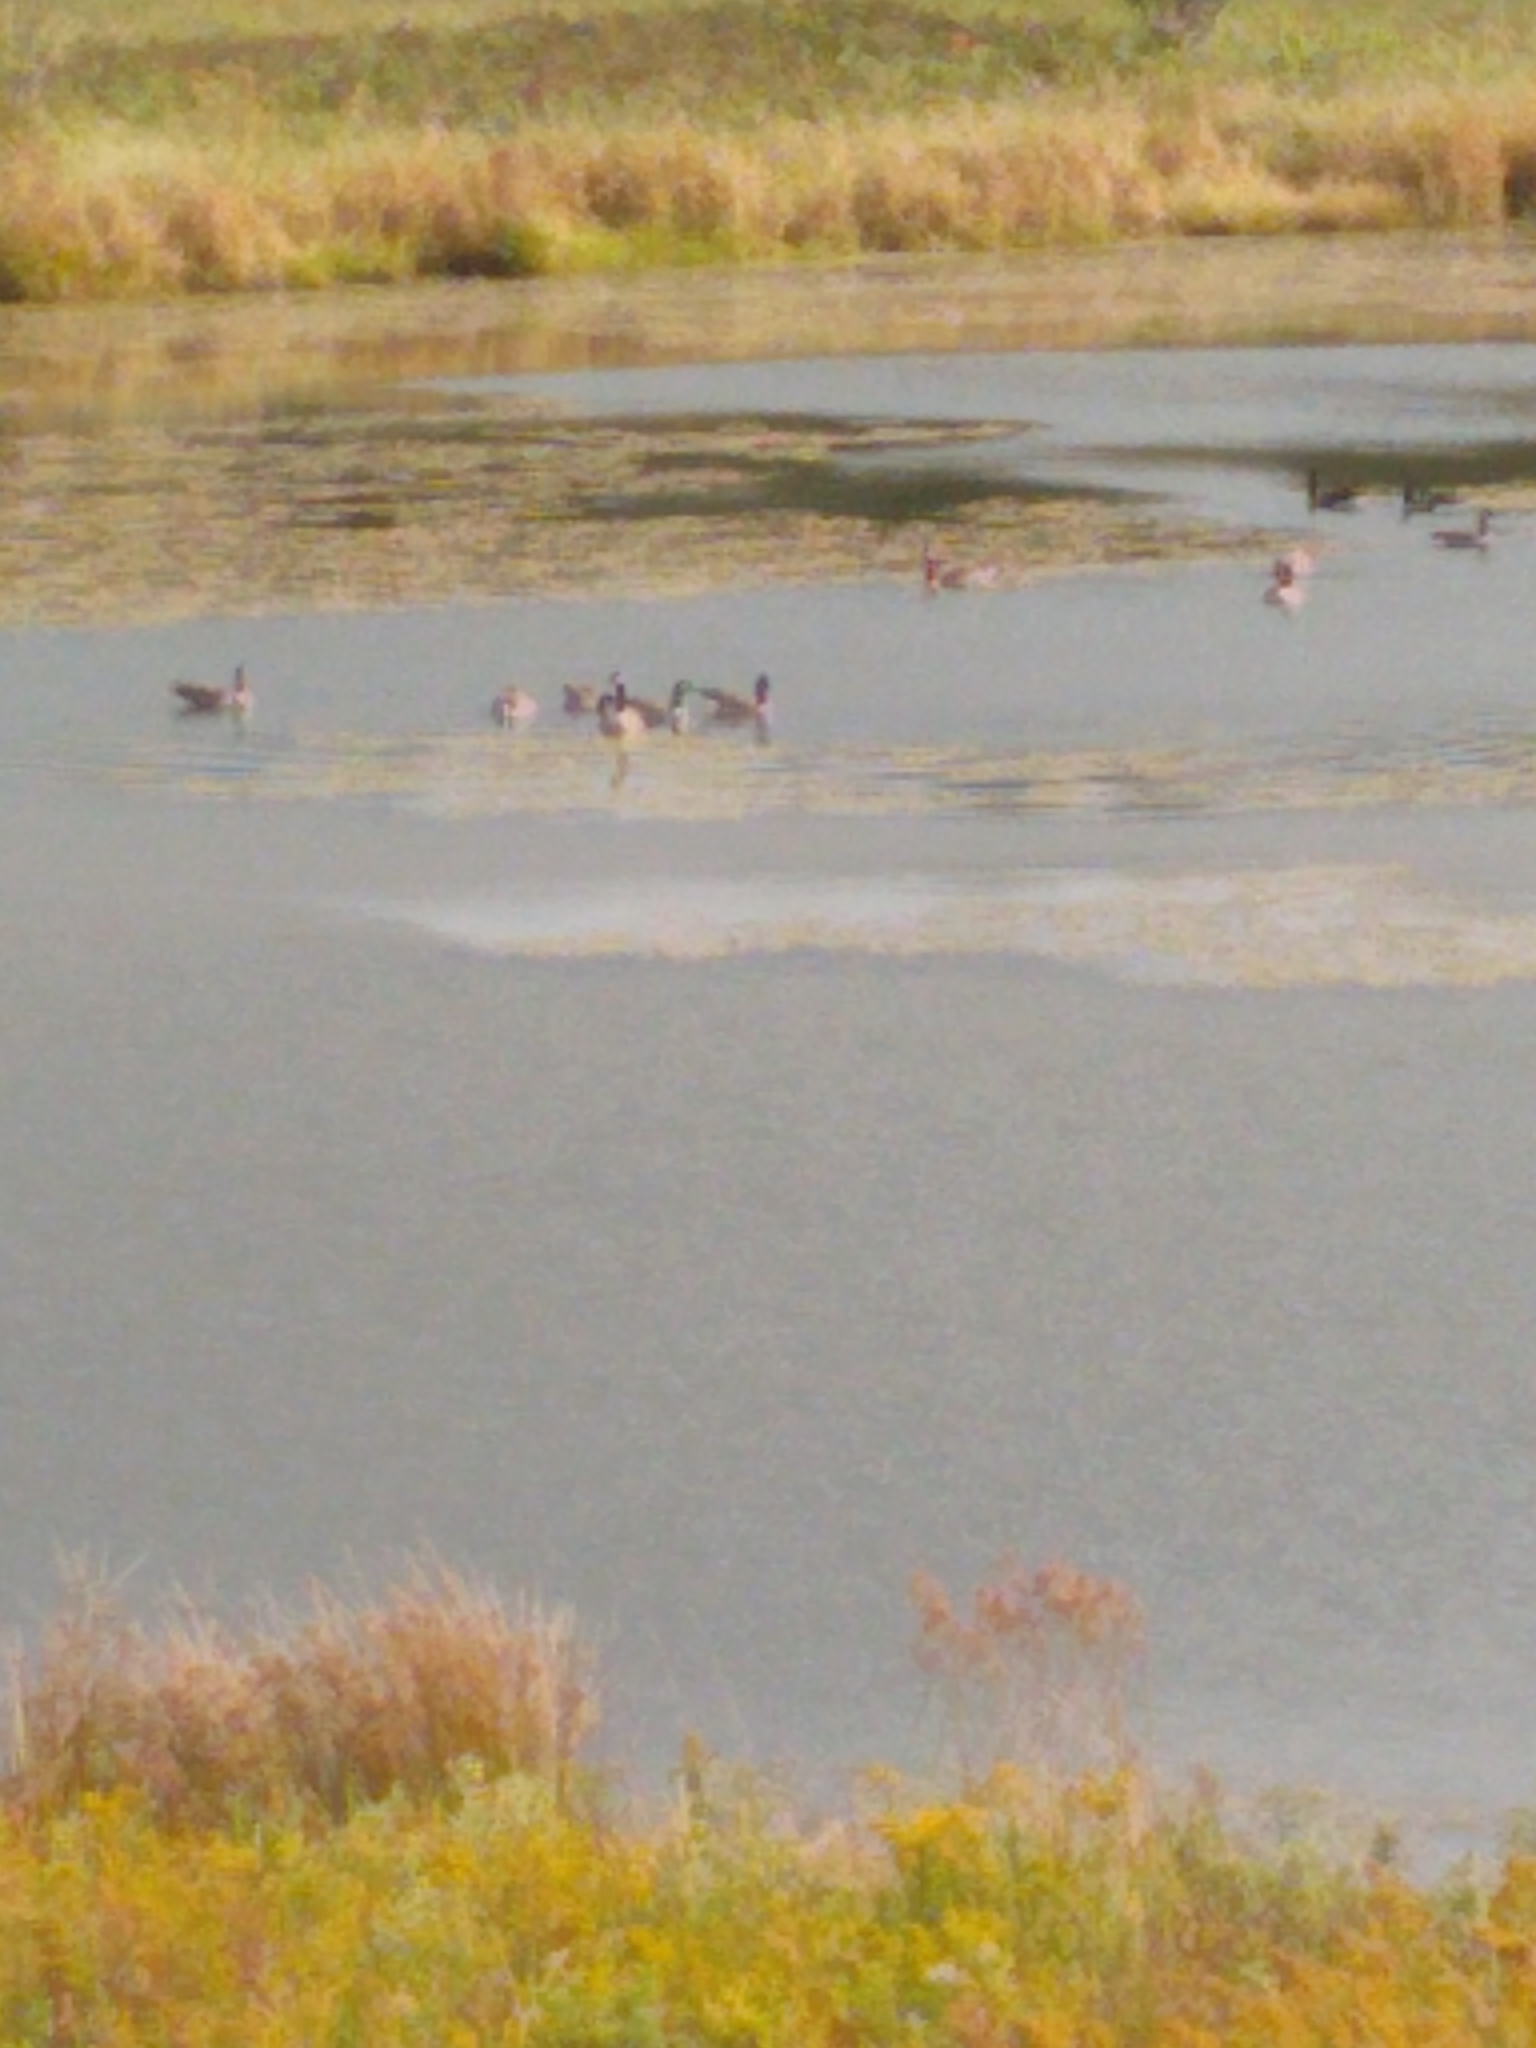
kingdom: Animalia
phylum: Chordata
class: Aves
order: Anseriformes
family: Anatidae
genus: Branta
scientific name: Branta canadensis
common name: Canada goose
